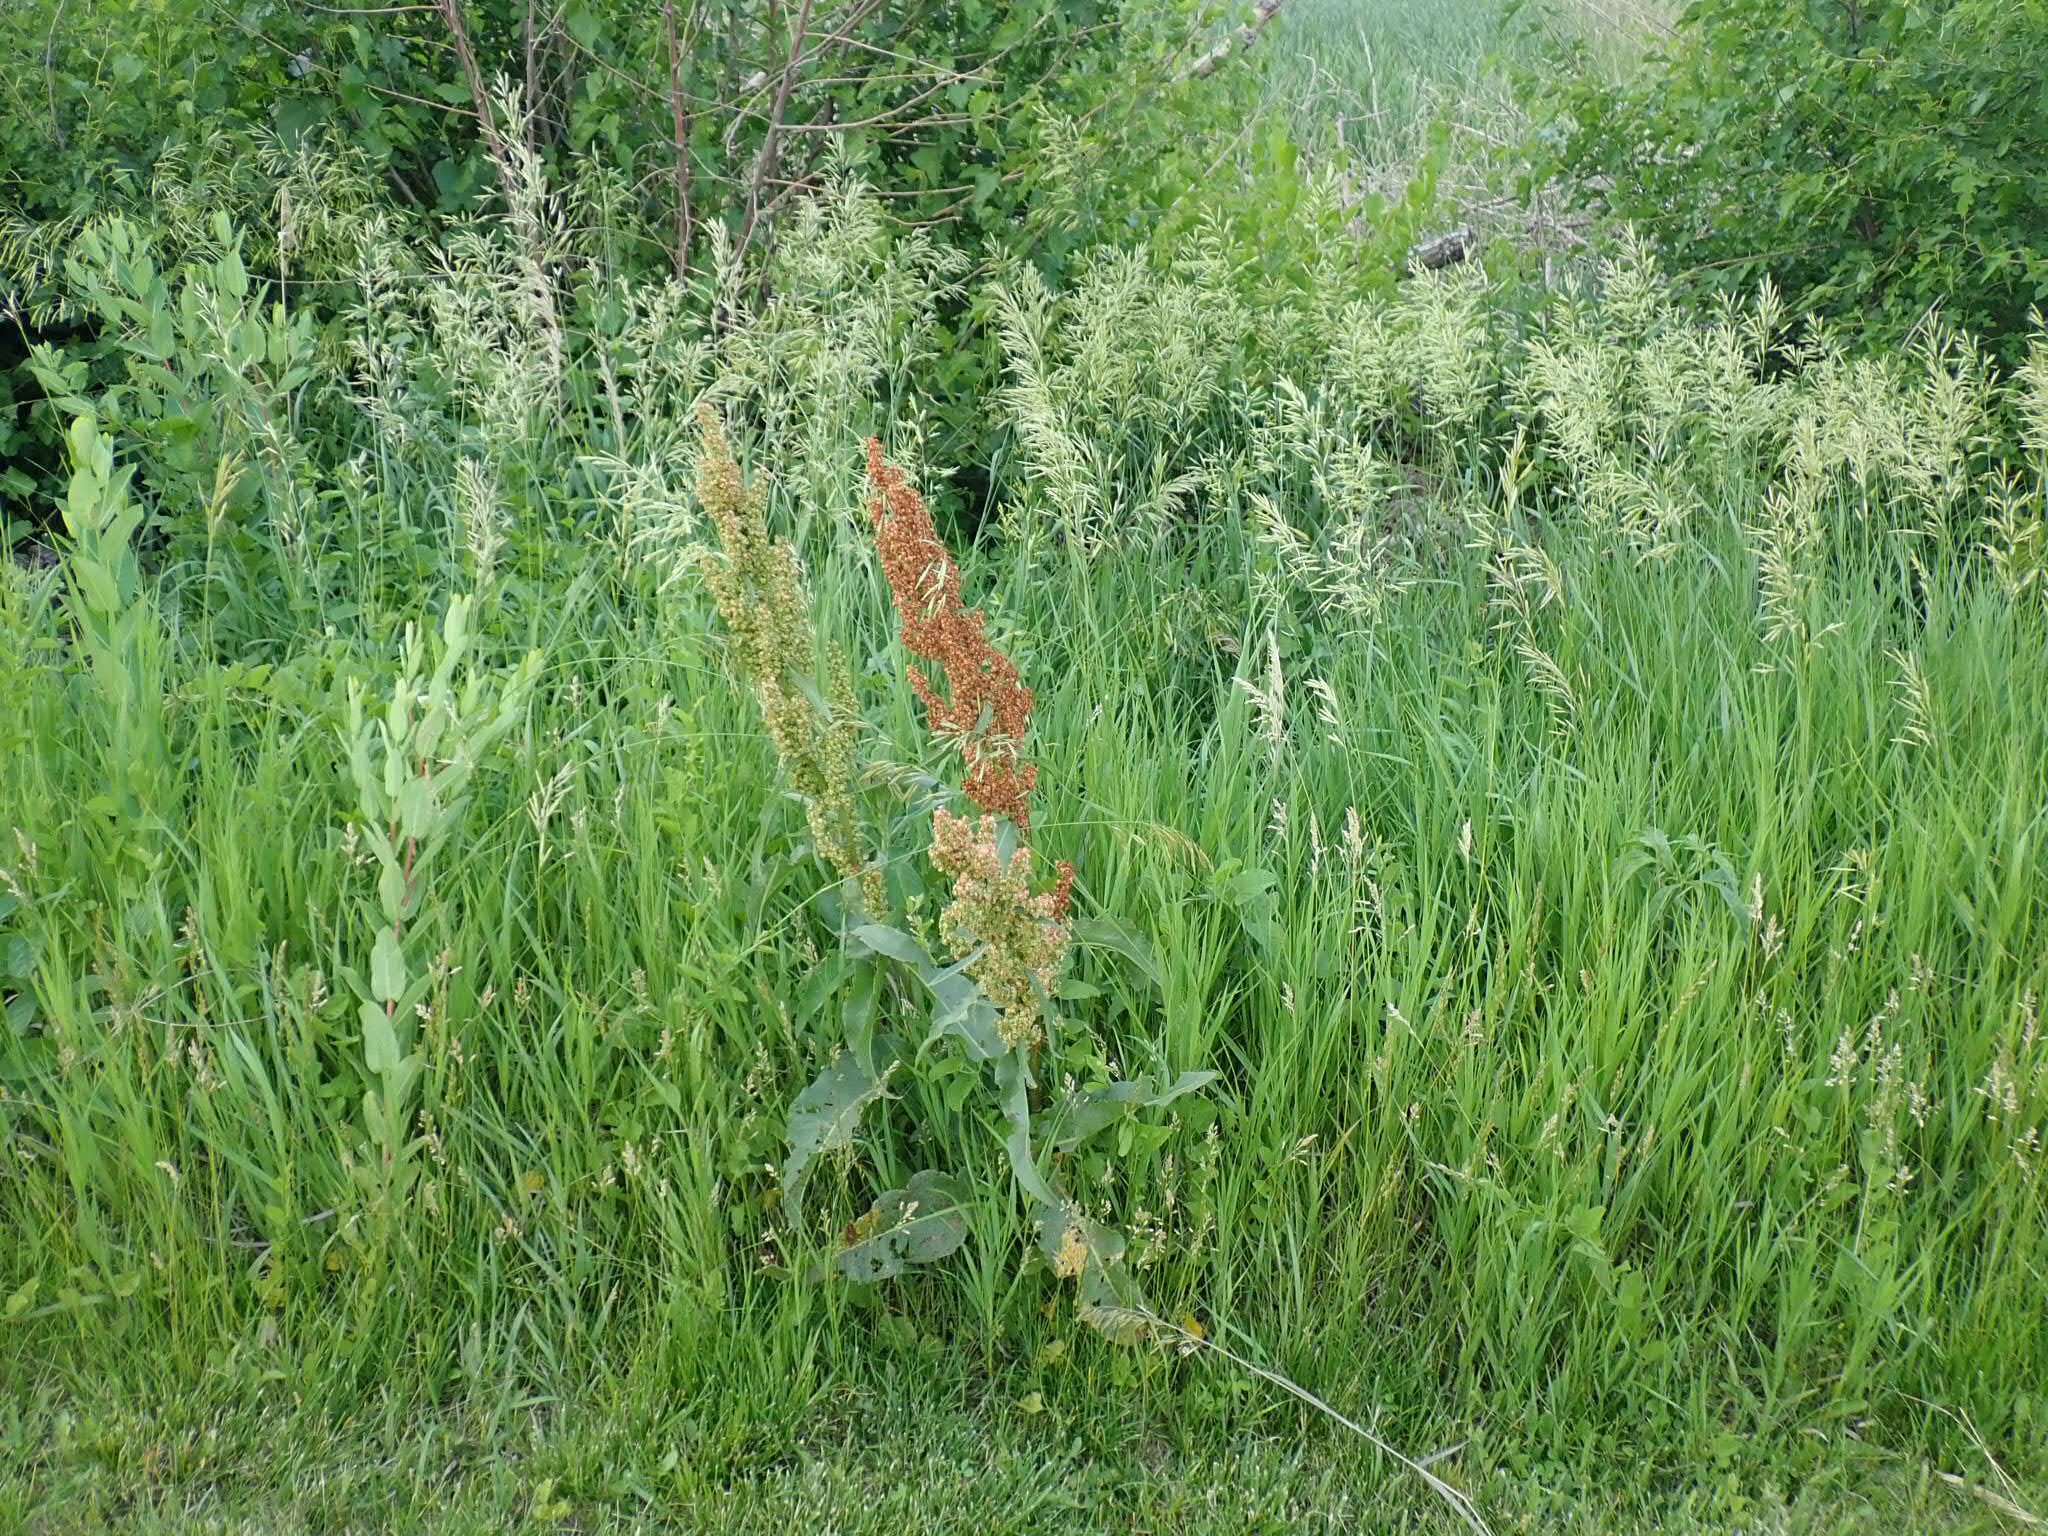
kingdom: Plantae
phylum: Tracheophyta
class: Magnoliopsida
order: Caryophyllales
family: Polygonaceae
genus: Rumex
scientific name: Rumex crispus
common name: Curled dock
